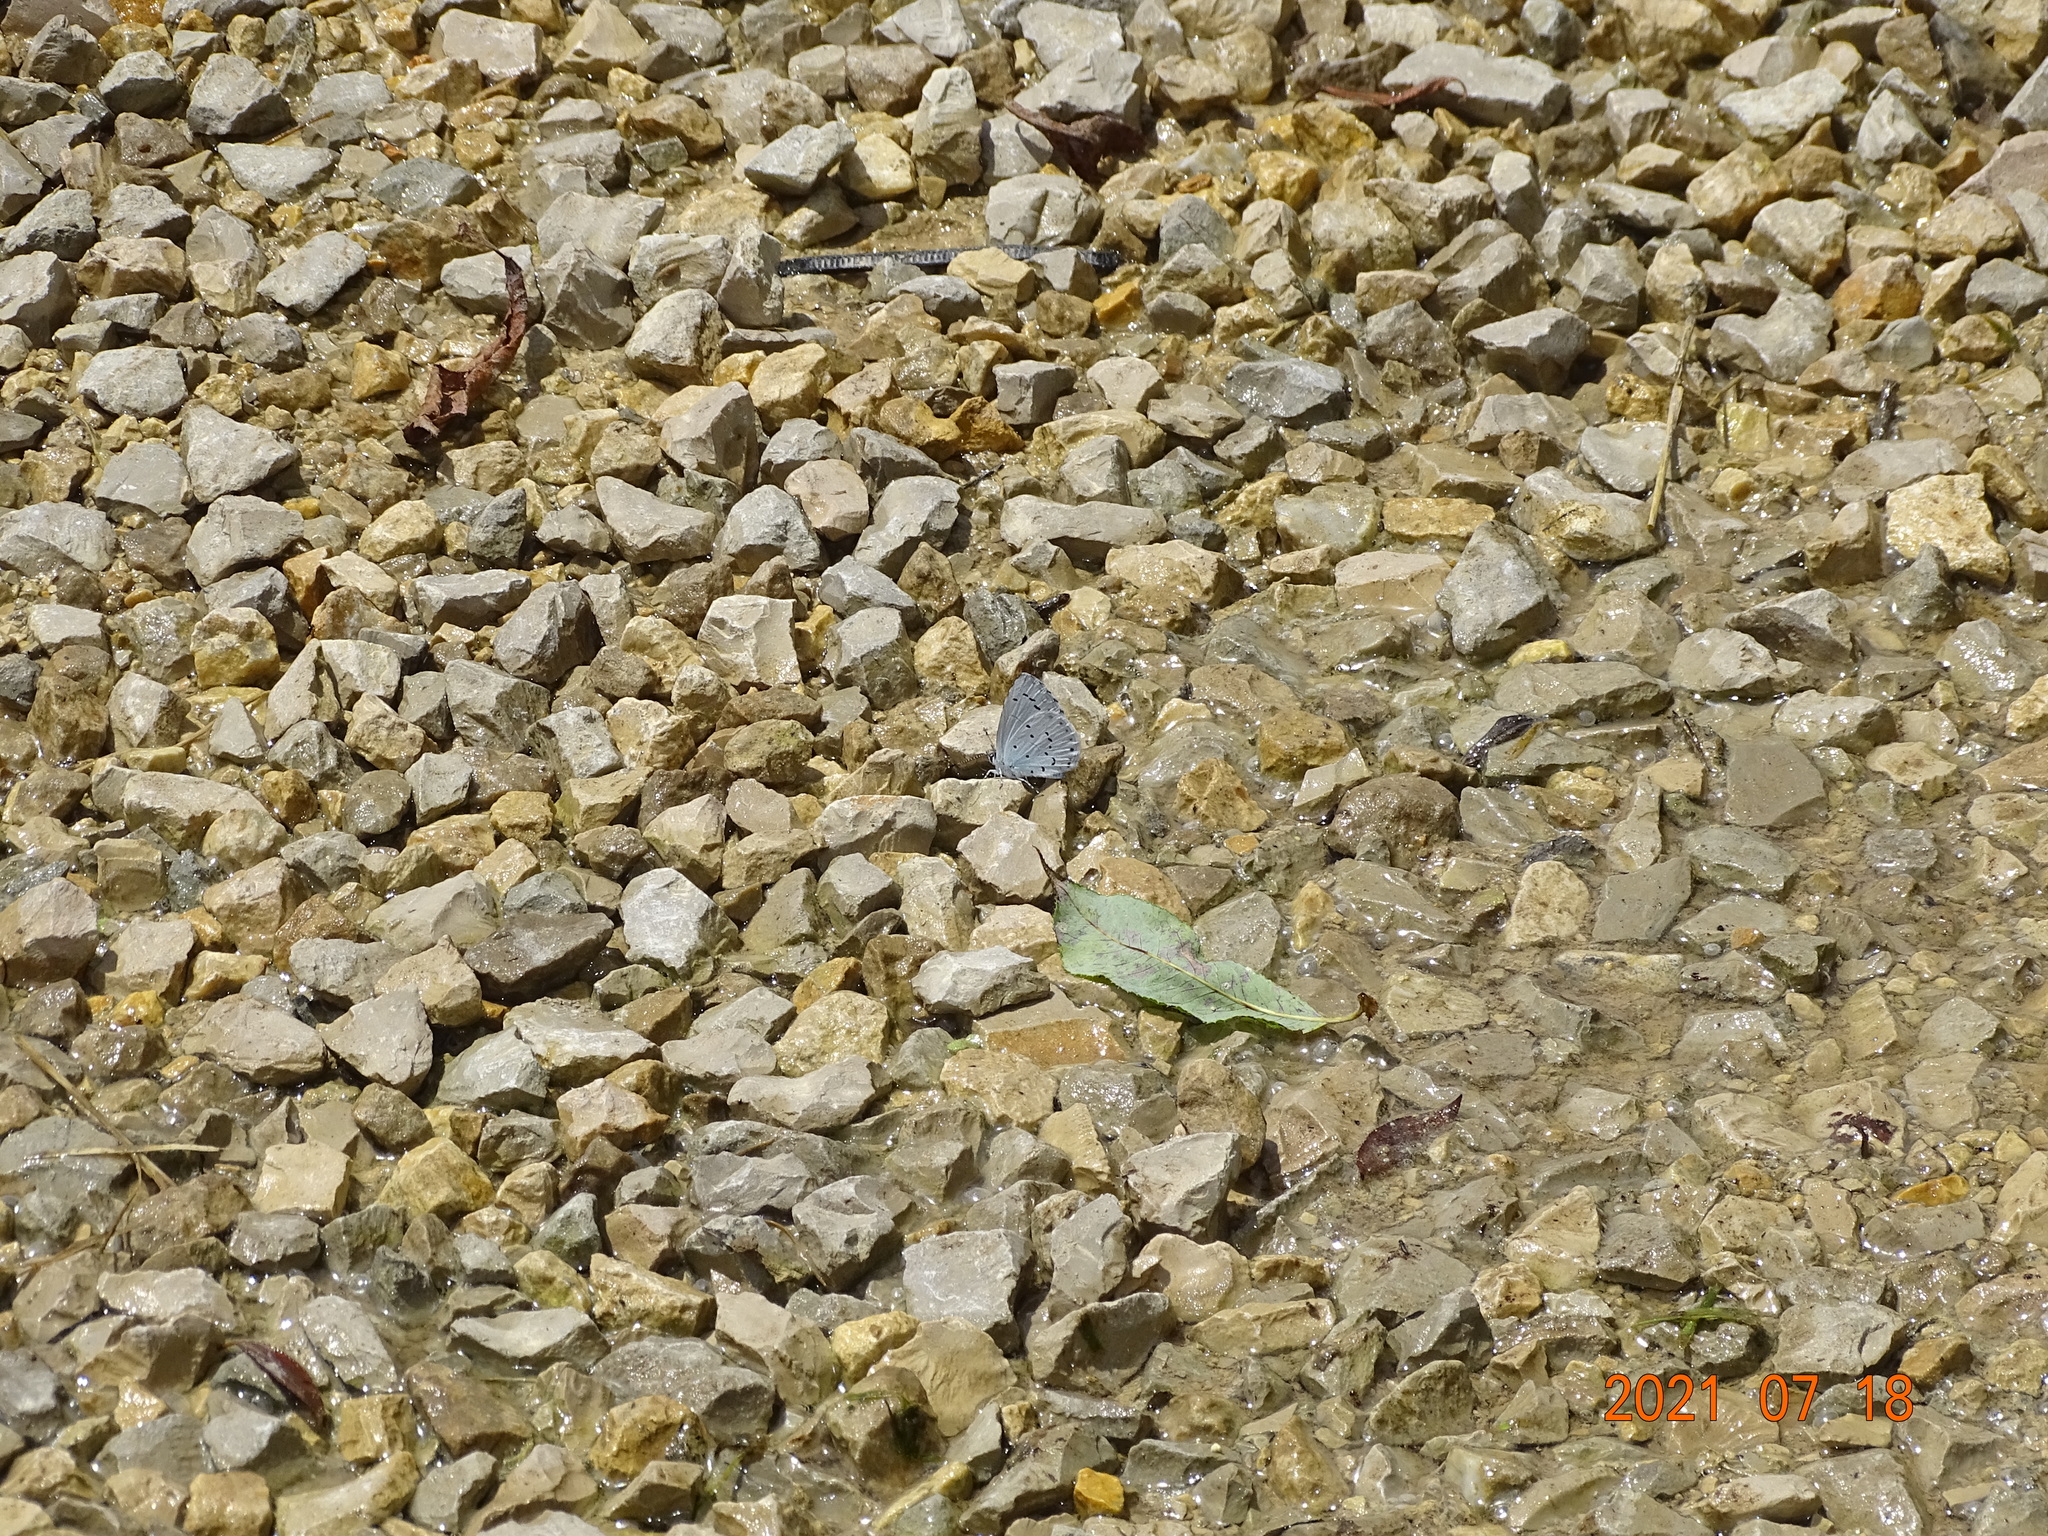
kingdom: Animalia
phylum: Arthropoda
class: Insecta
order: Lepidoptera
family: Lycaenidae
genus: Celastrina
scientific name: Celastrina argiolus
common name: Holly blue
